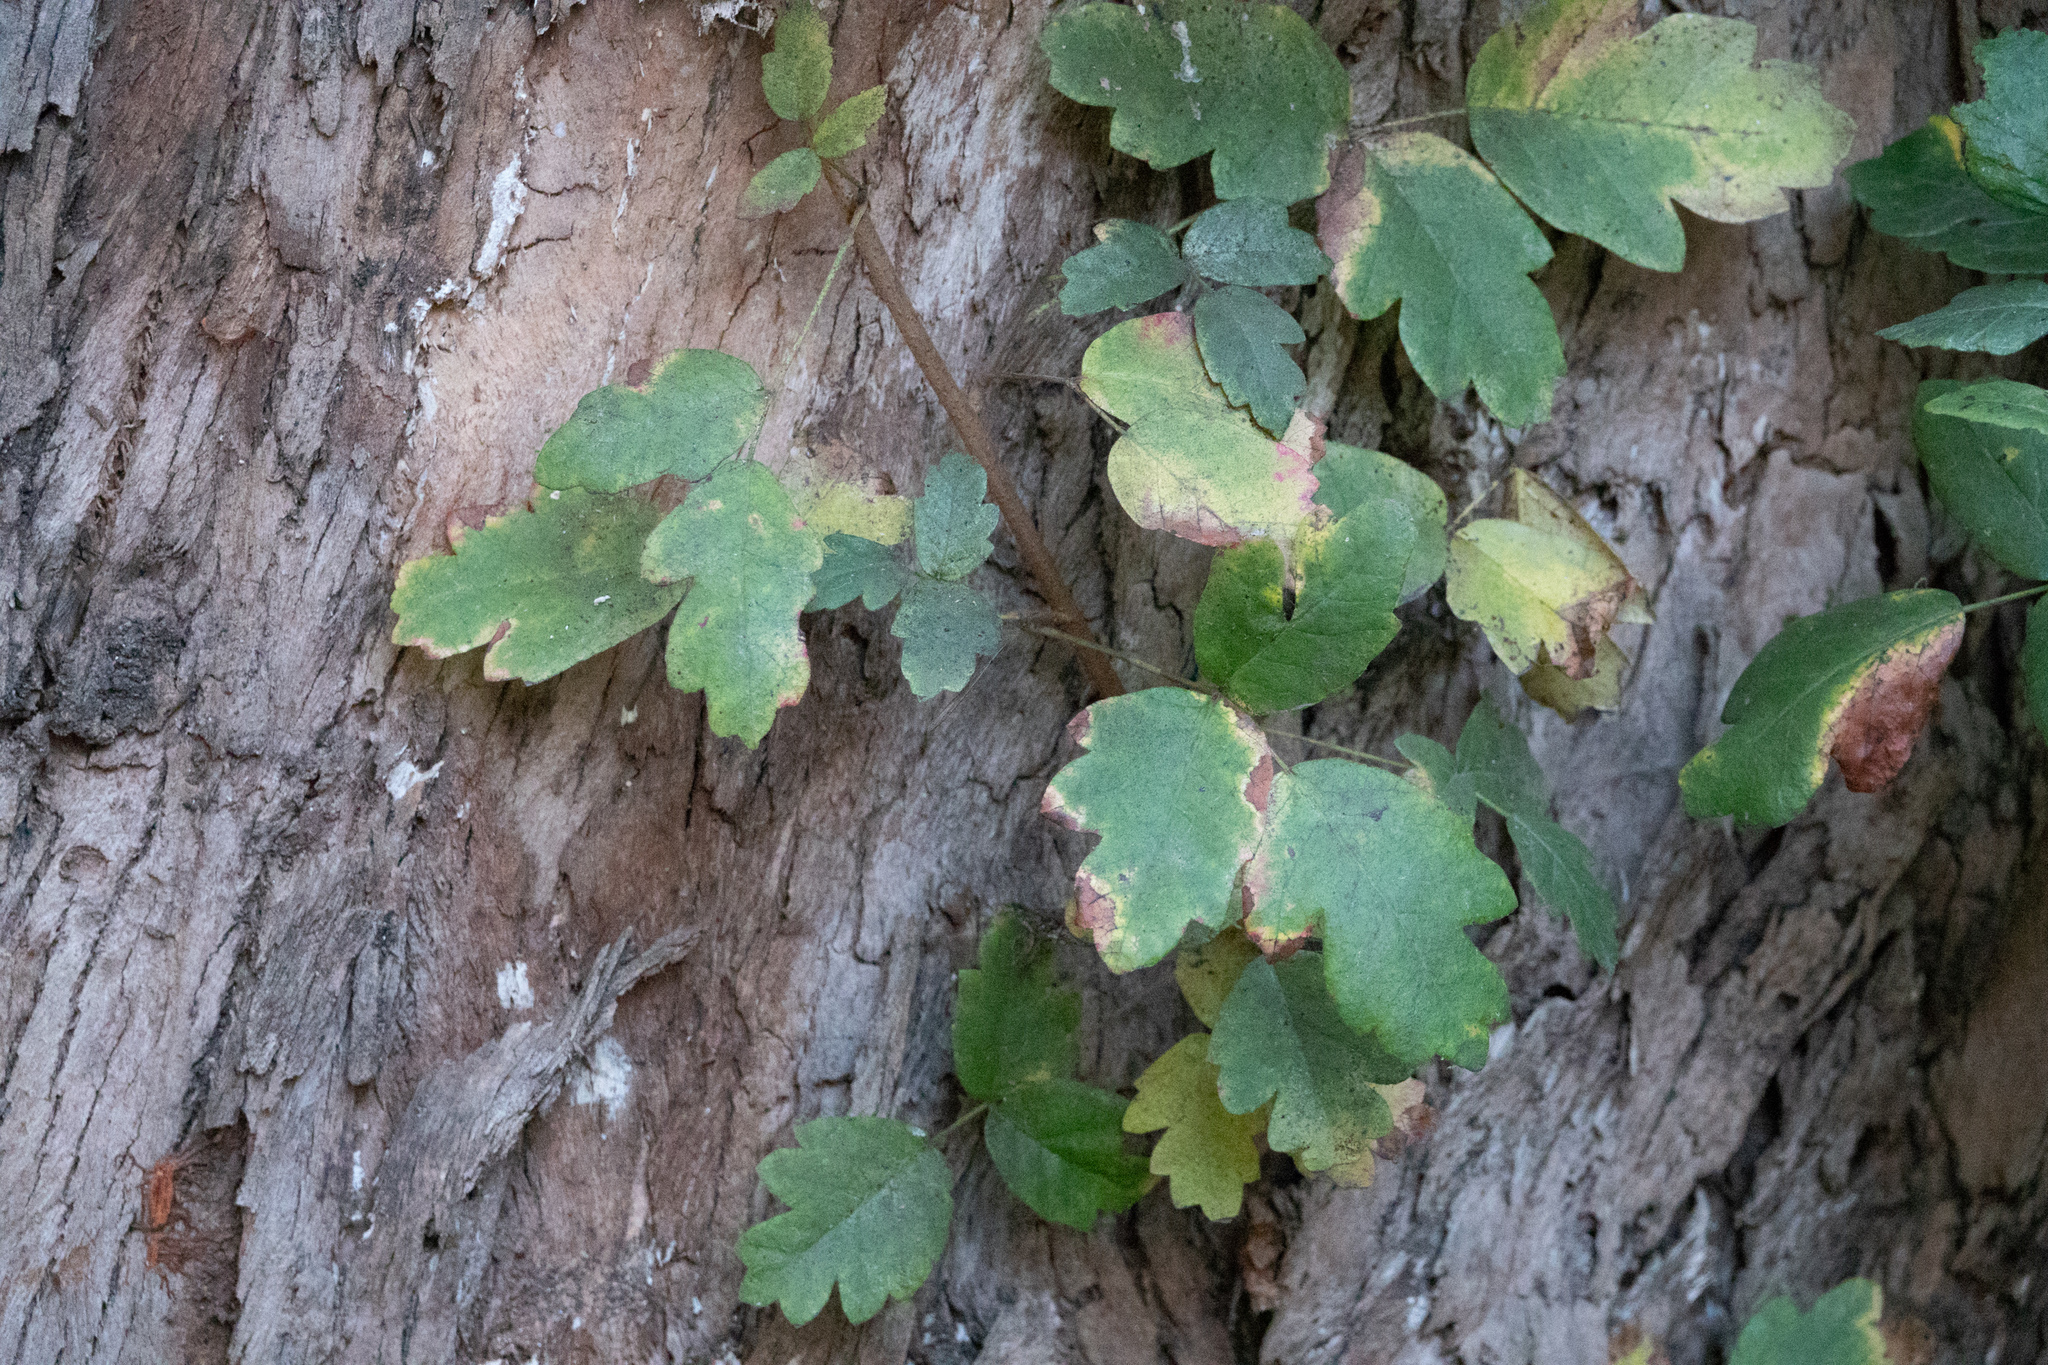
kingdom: Plantae
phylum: Tracheophyta
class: Magnoliopsida
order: Sapindales
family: Anacardiaceae
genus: Toxicodendron
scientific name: Toxicodendron diversilobum
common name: Pacific poison-oak
